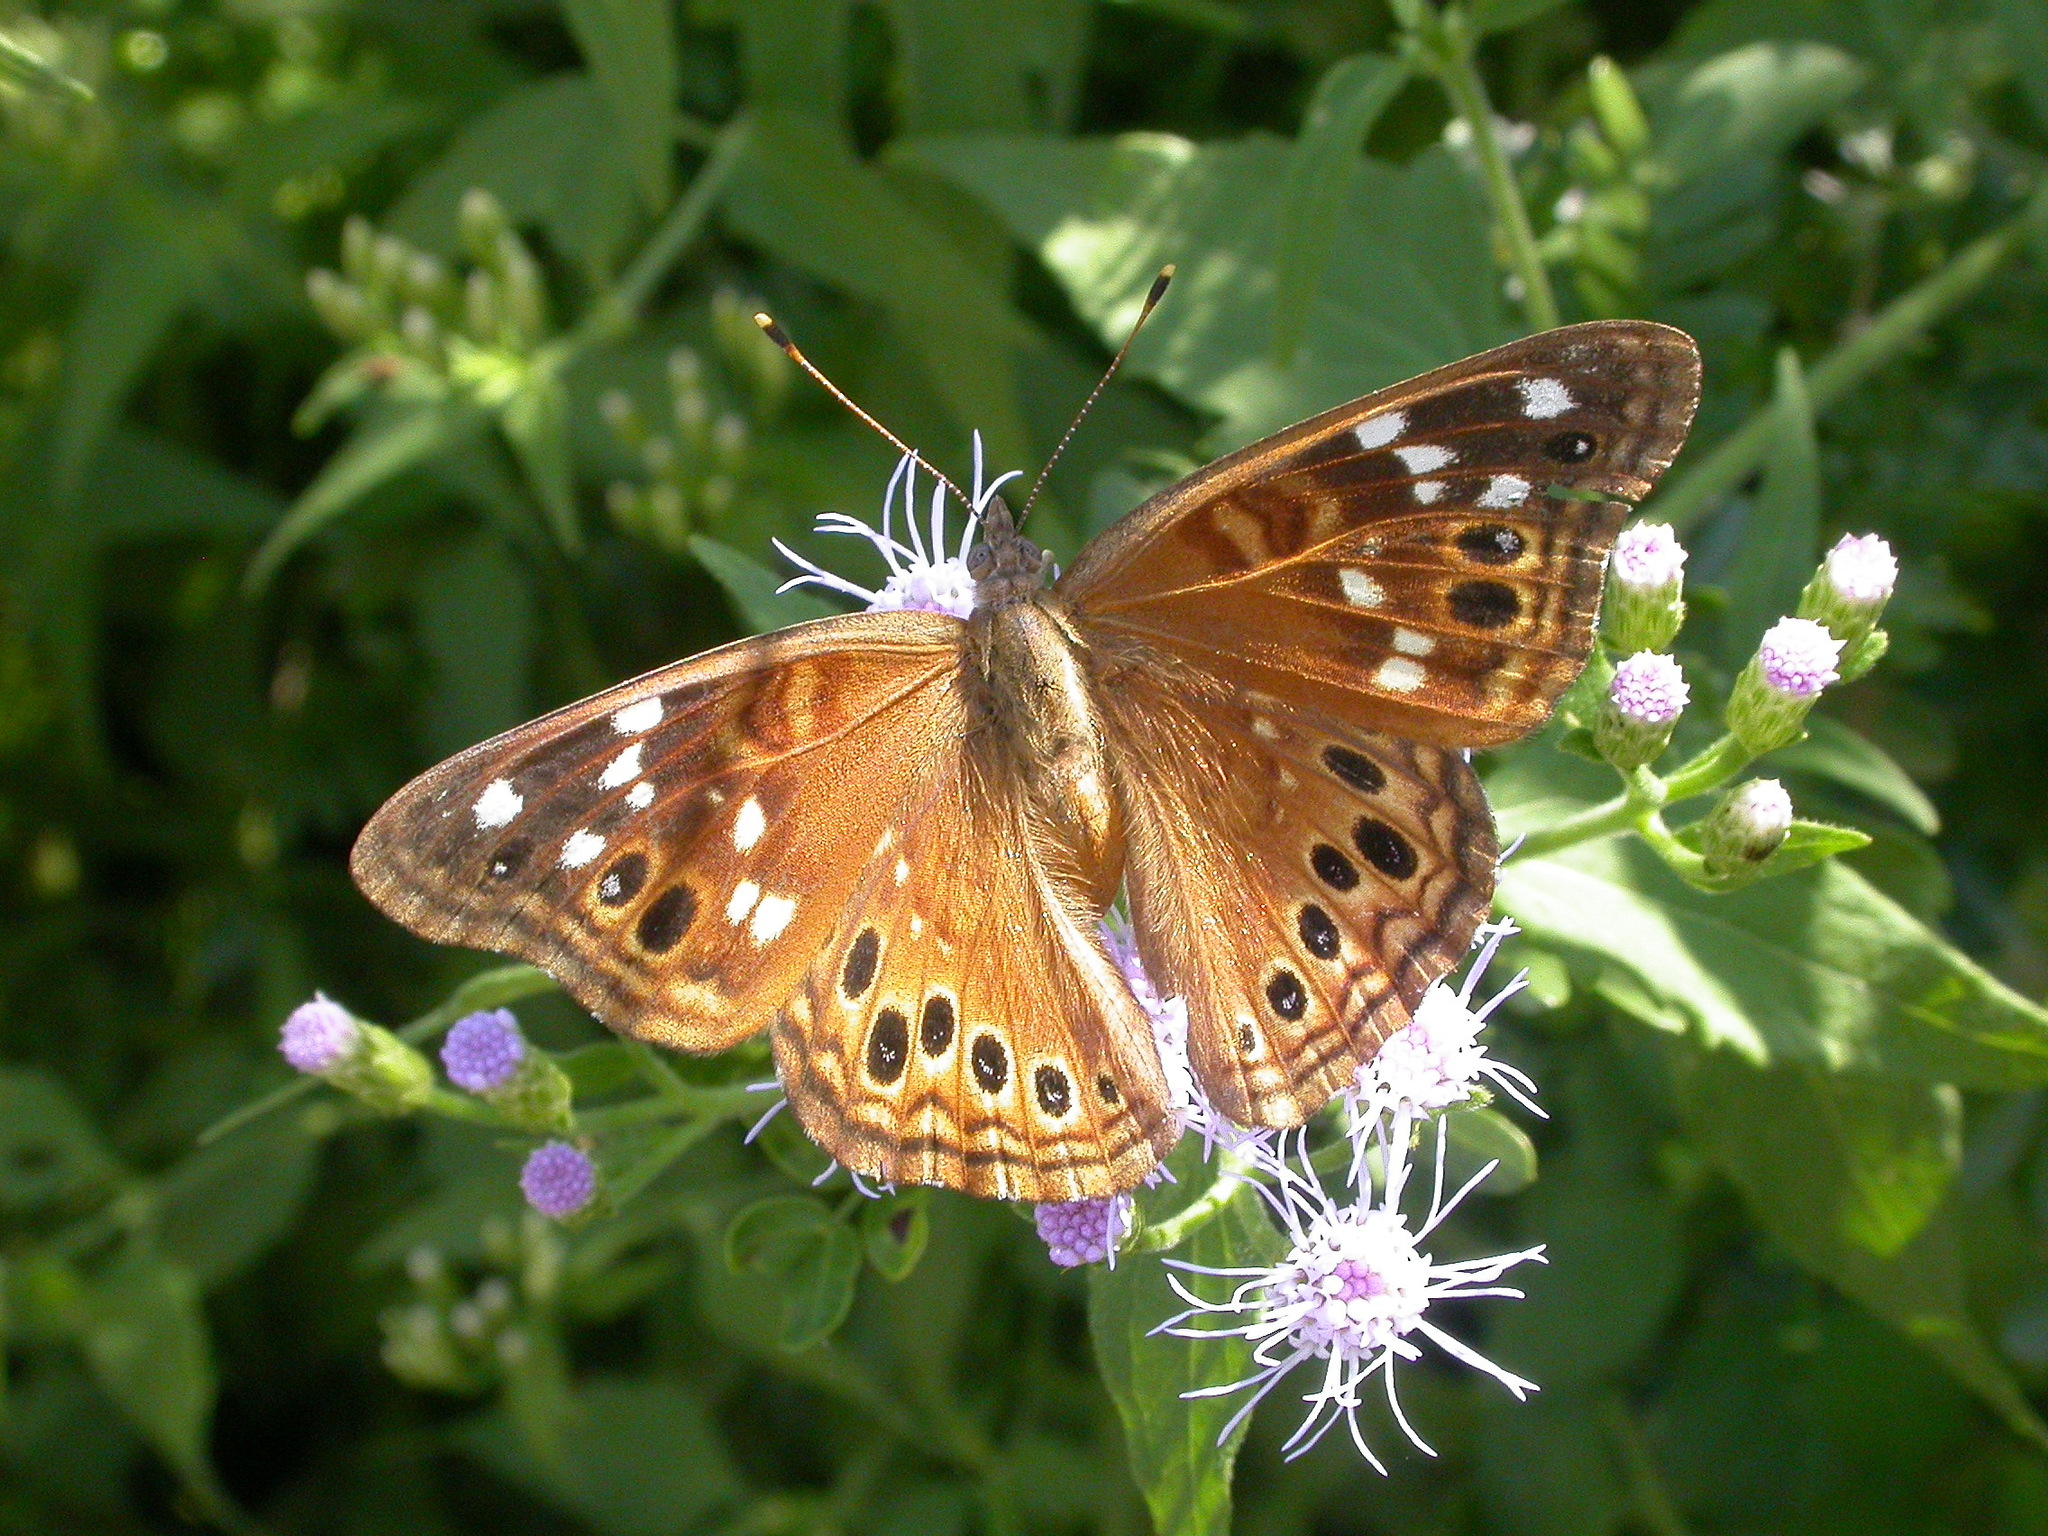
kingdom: Animalia
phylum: Arthropoda
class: Insecta
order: Lepidoptera
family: Nymphalidae
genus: Asterocampa
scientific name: Asterocampa leilia
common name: Empress leilia
